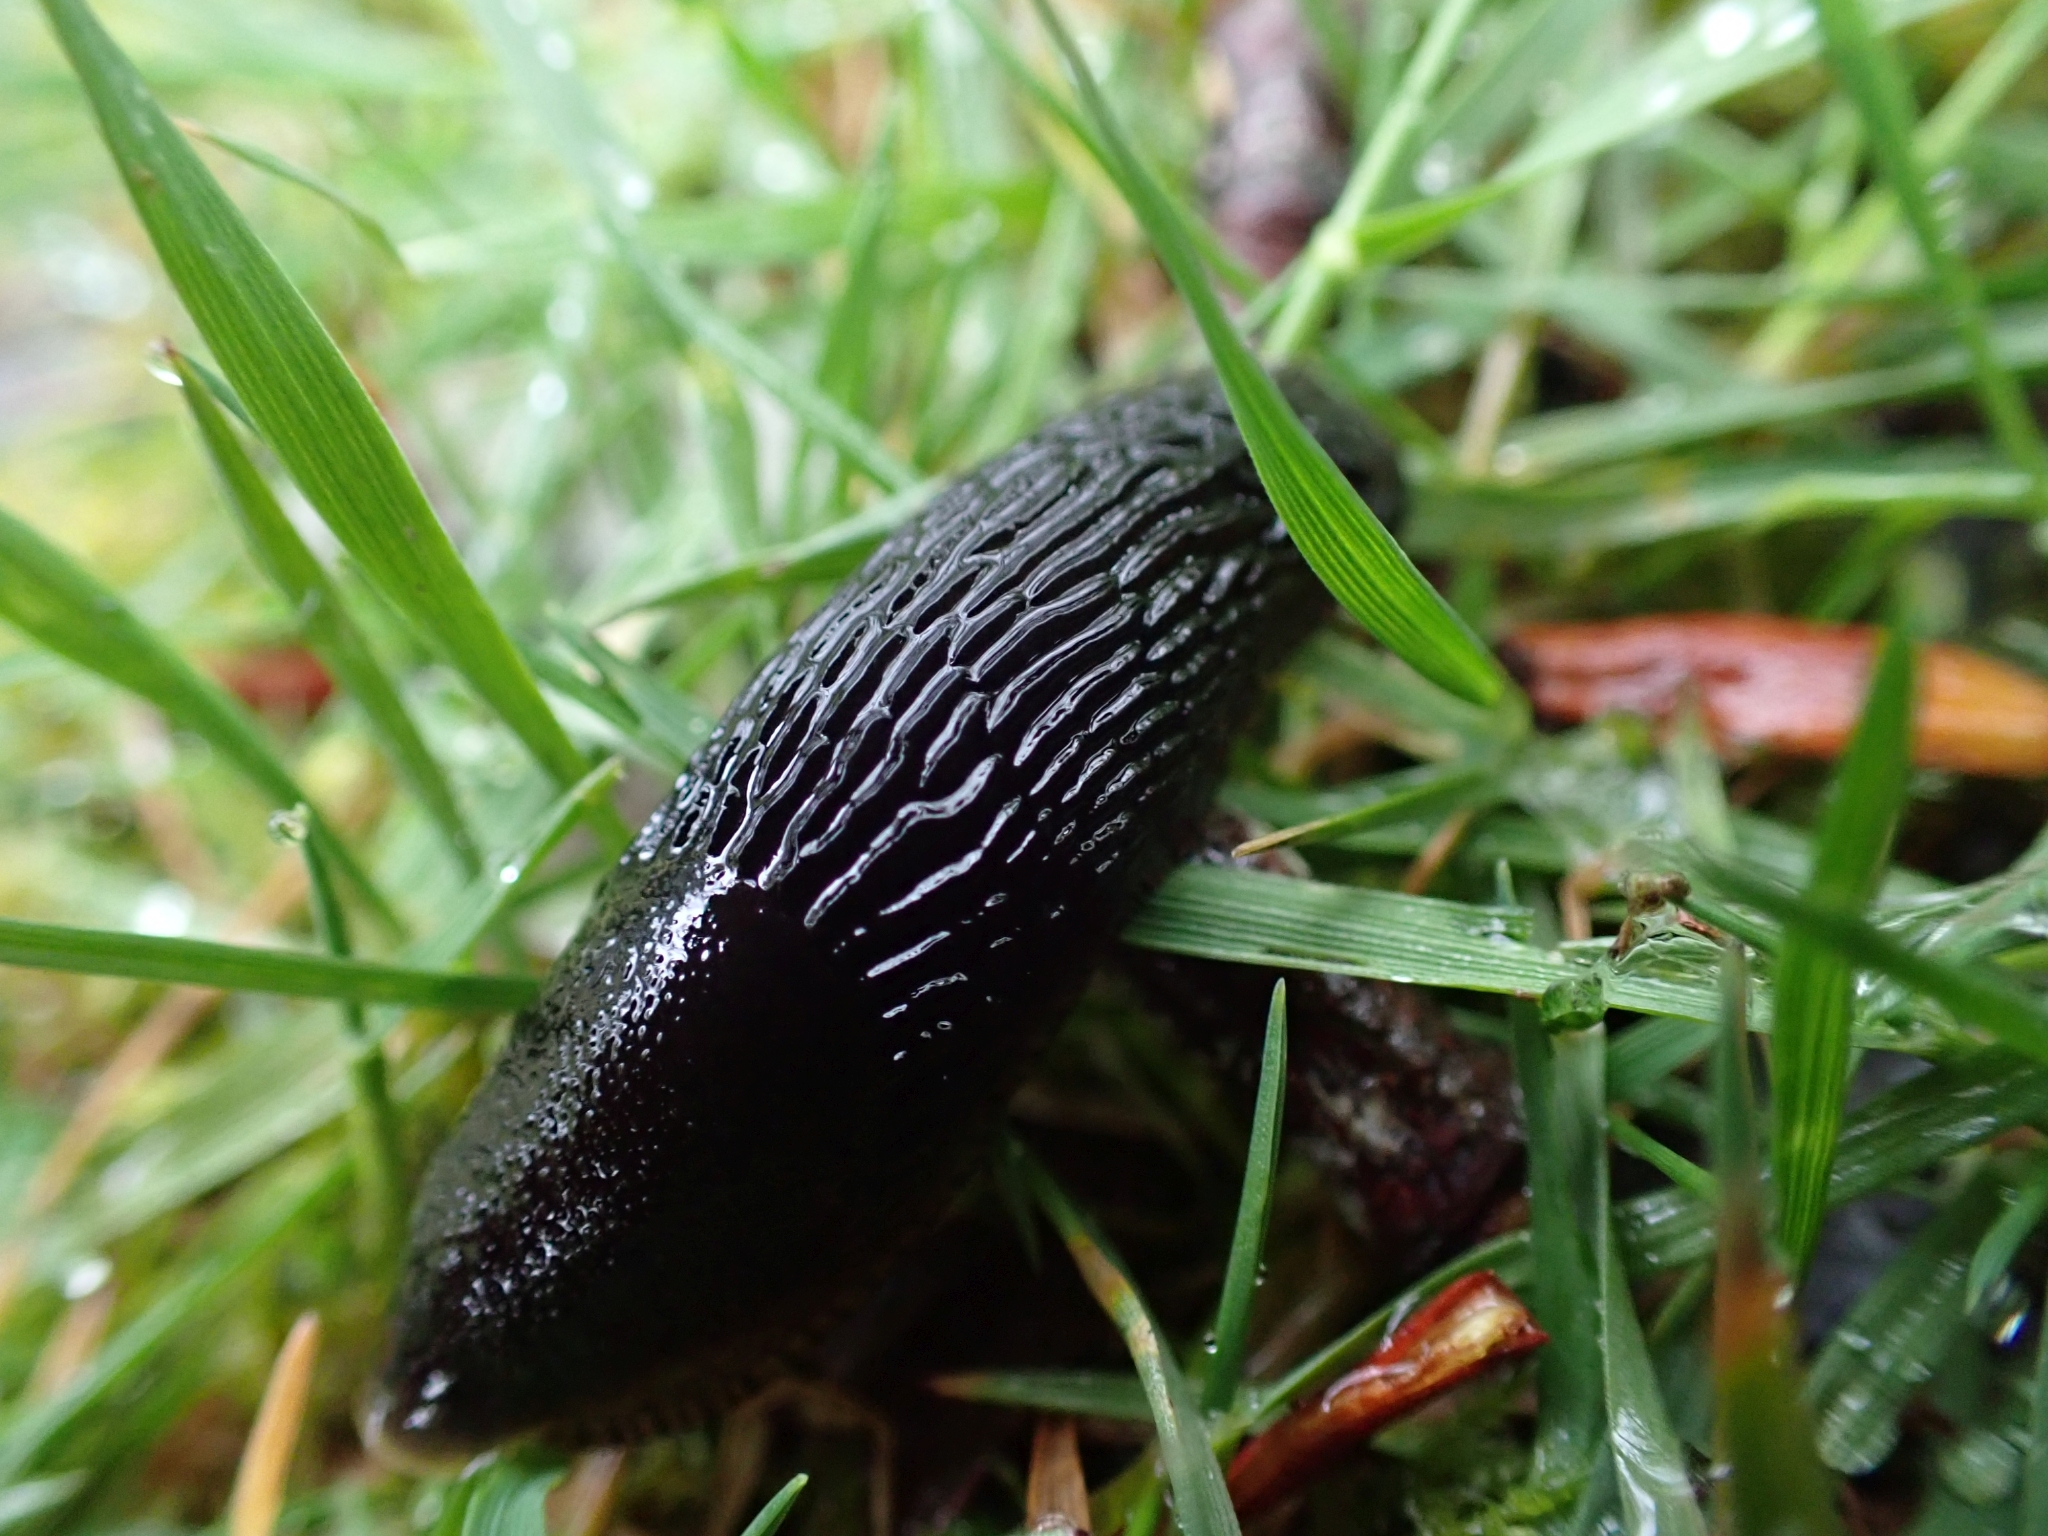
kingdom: Animalia
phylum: Mollusca
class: Gastropoda
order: Stylommatophora
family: Arionidae
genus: Arion
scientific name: Arion
